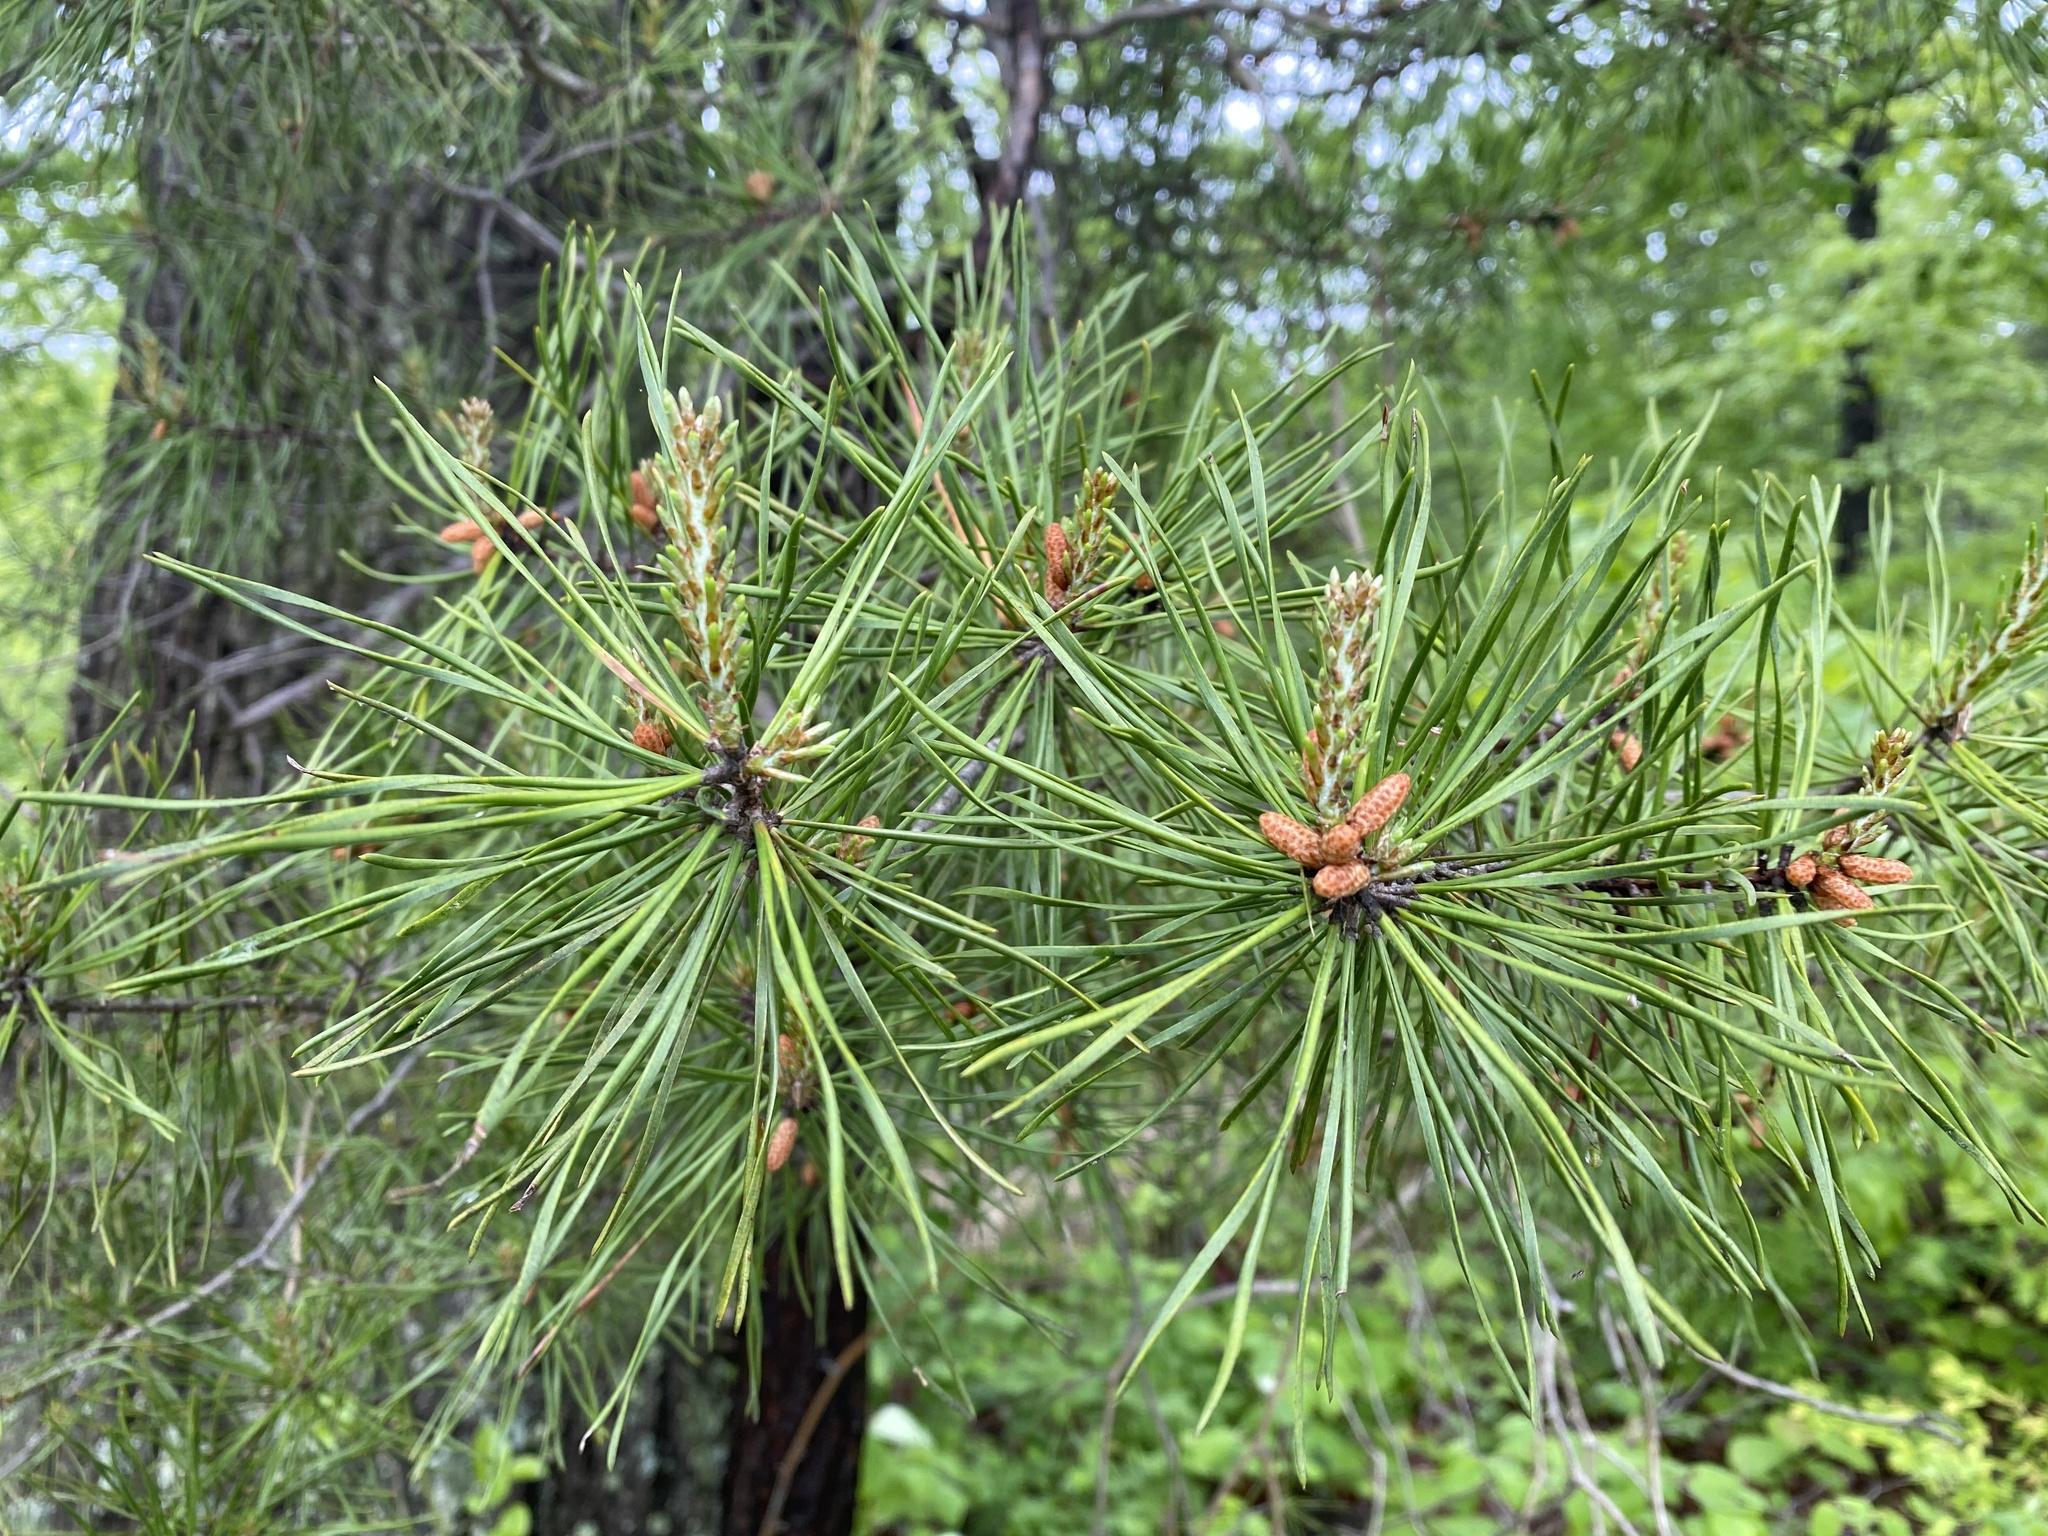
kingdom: Plantae
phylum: Tracheophyta
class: Pinopsida
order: Pinales
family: Pinaceae
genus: Pinus
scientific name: Pinus virginiana
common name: Scrub pine
